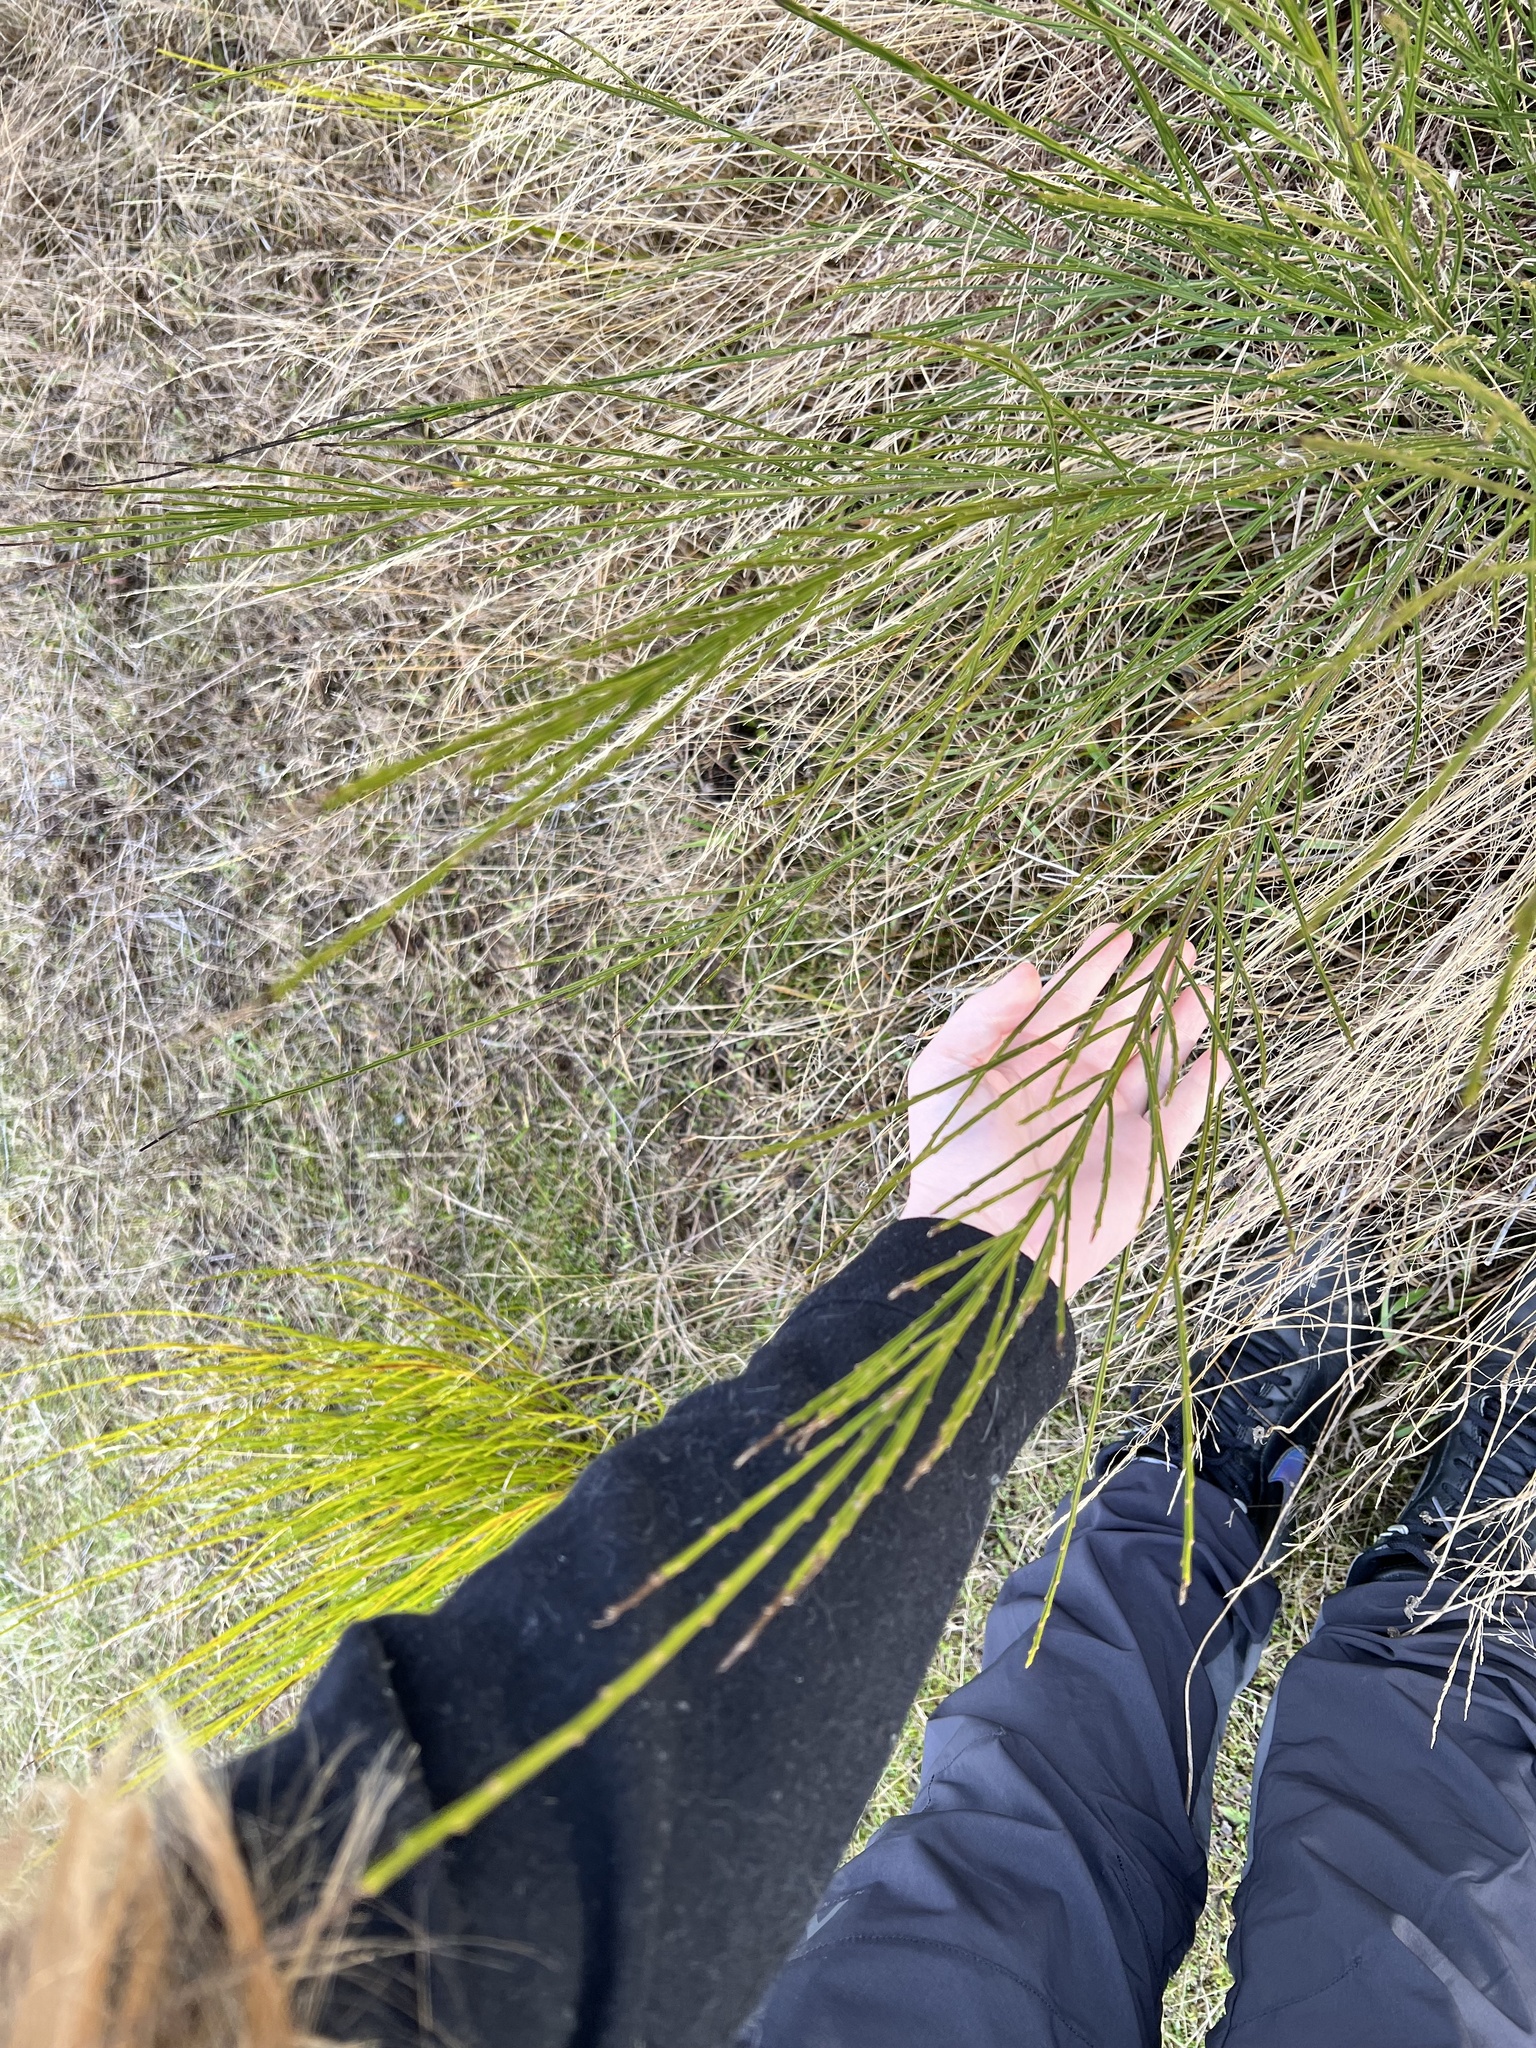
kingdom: Plantae
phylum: Tracheophyta
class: Magnoliopsida
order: Fabales
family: Fabaceae
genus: Cytisus
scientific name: Cytisus scoparius
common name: Scotch broom
